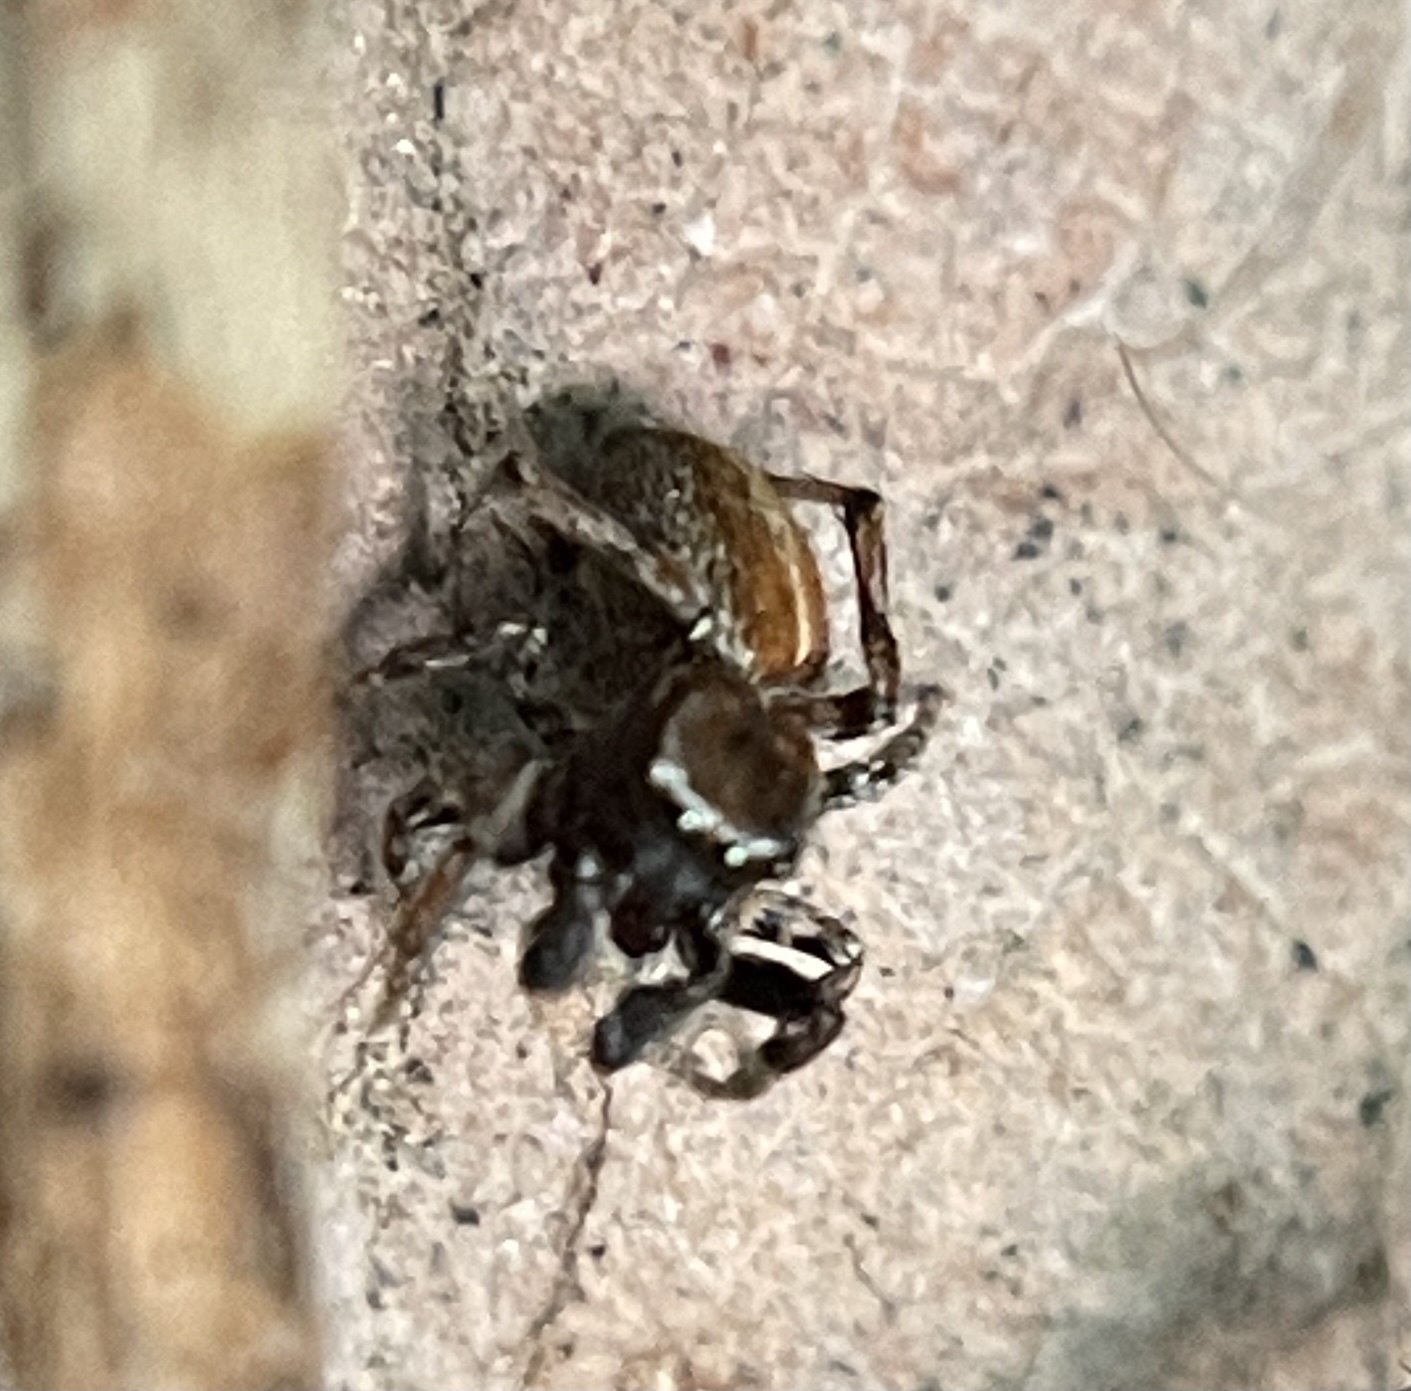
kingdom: Animalia
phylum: Arthropoda
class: Arachnida
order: Araneae
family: Salticidae
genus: Attinella
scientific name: Attinella dorsata
